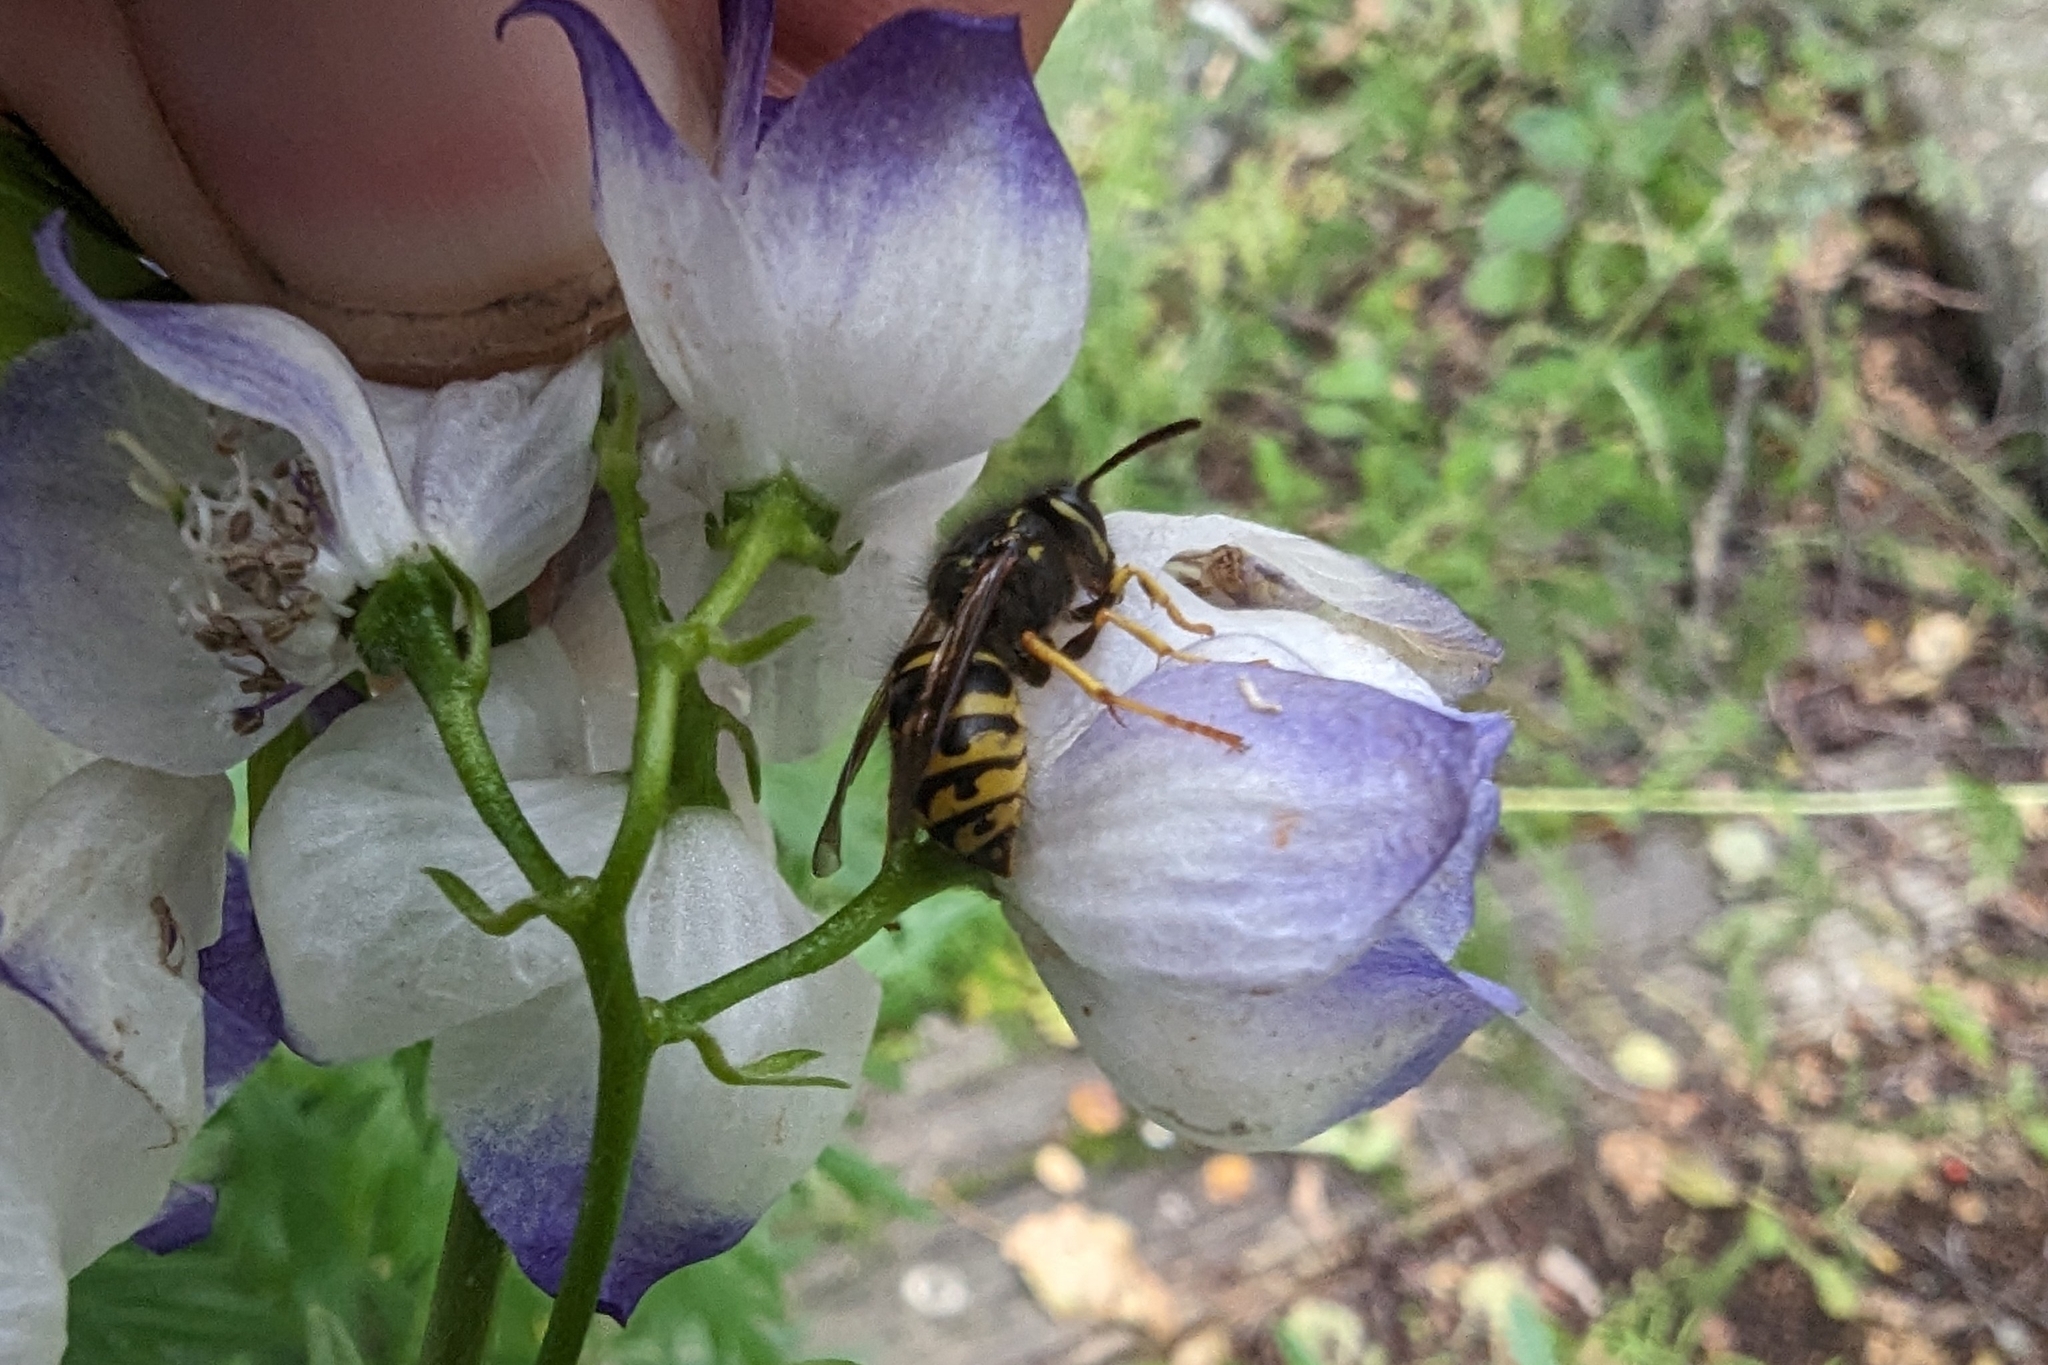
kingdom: Animalia
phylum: Arthropoda
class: Insecta
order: Hymenoptera
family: Vespidae
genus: Dolichovespula
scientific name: Dolichovespula arenaria
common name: Aerial yellowjacket
